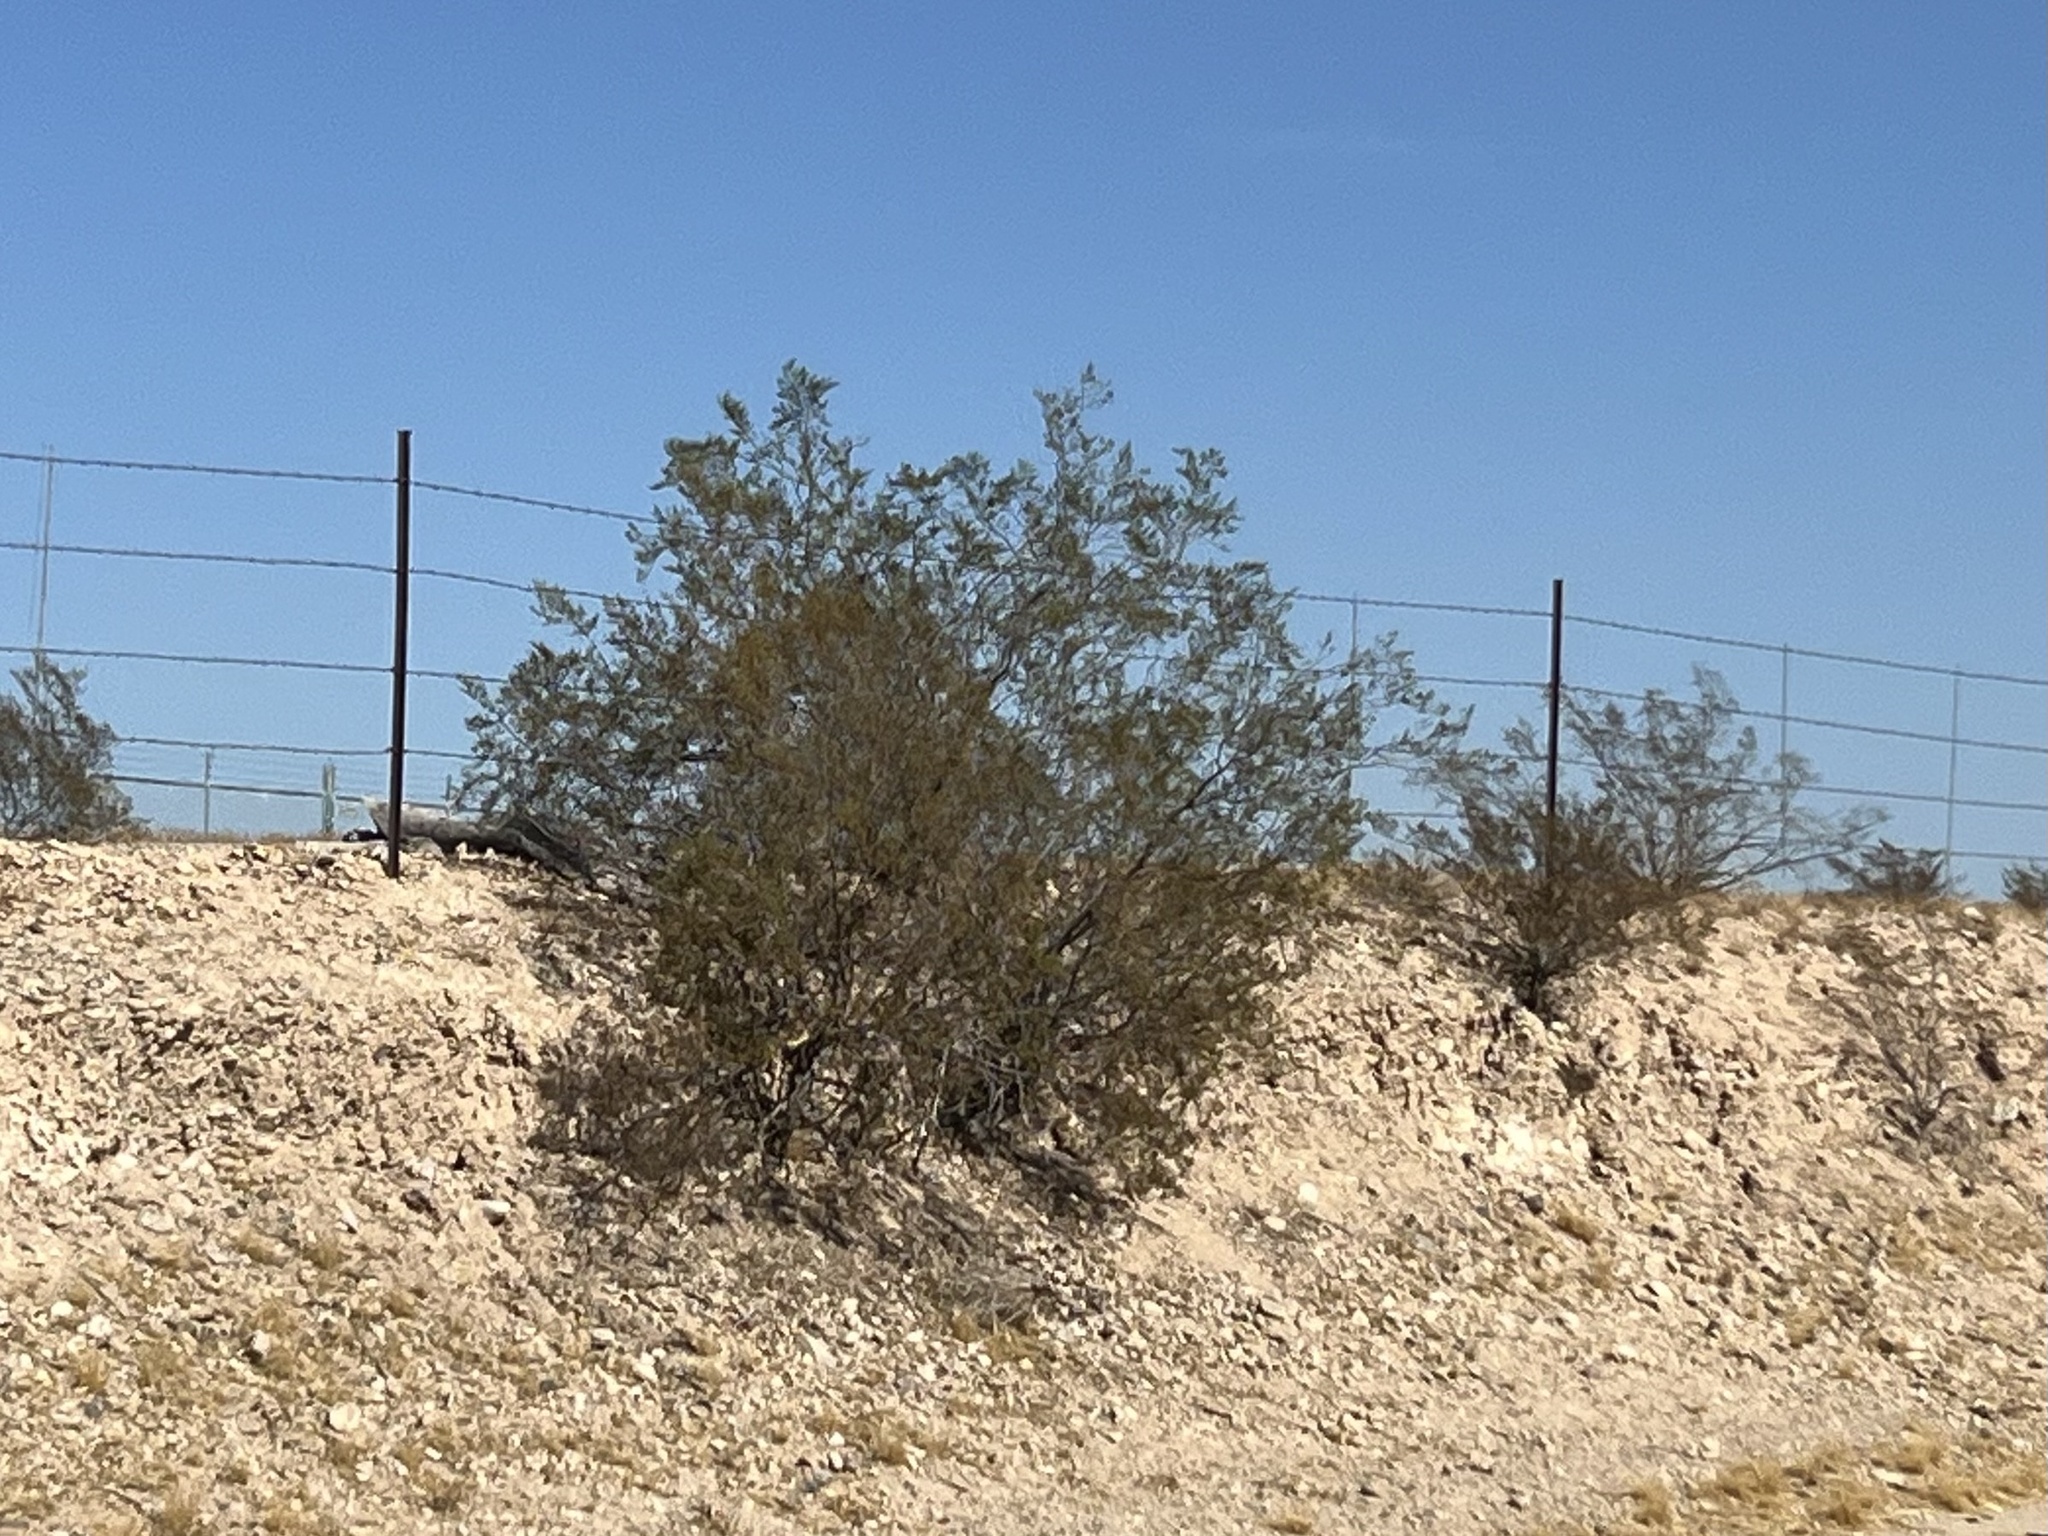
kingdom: Plantae
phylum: Tracheophyta
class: Magnoliopsida
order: Zygophyllales
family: Zygophyllaceae
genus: Larrea
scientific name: Larrea tridentata
